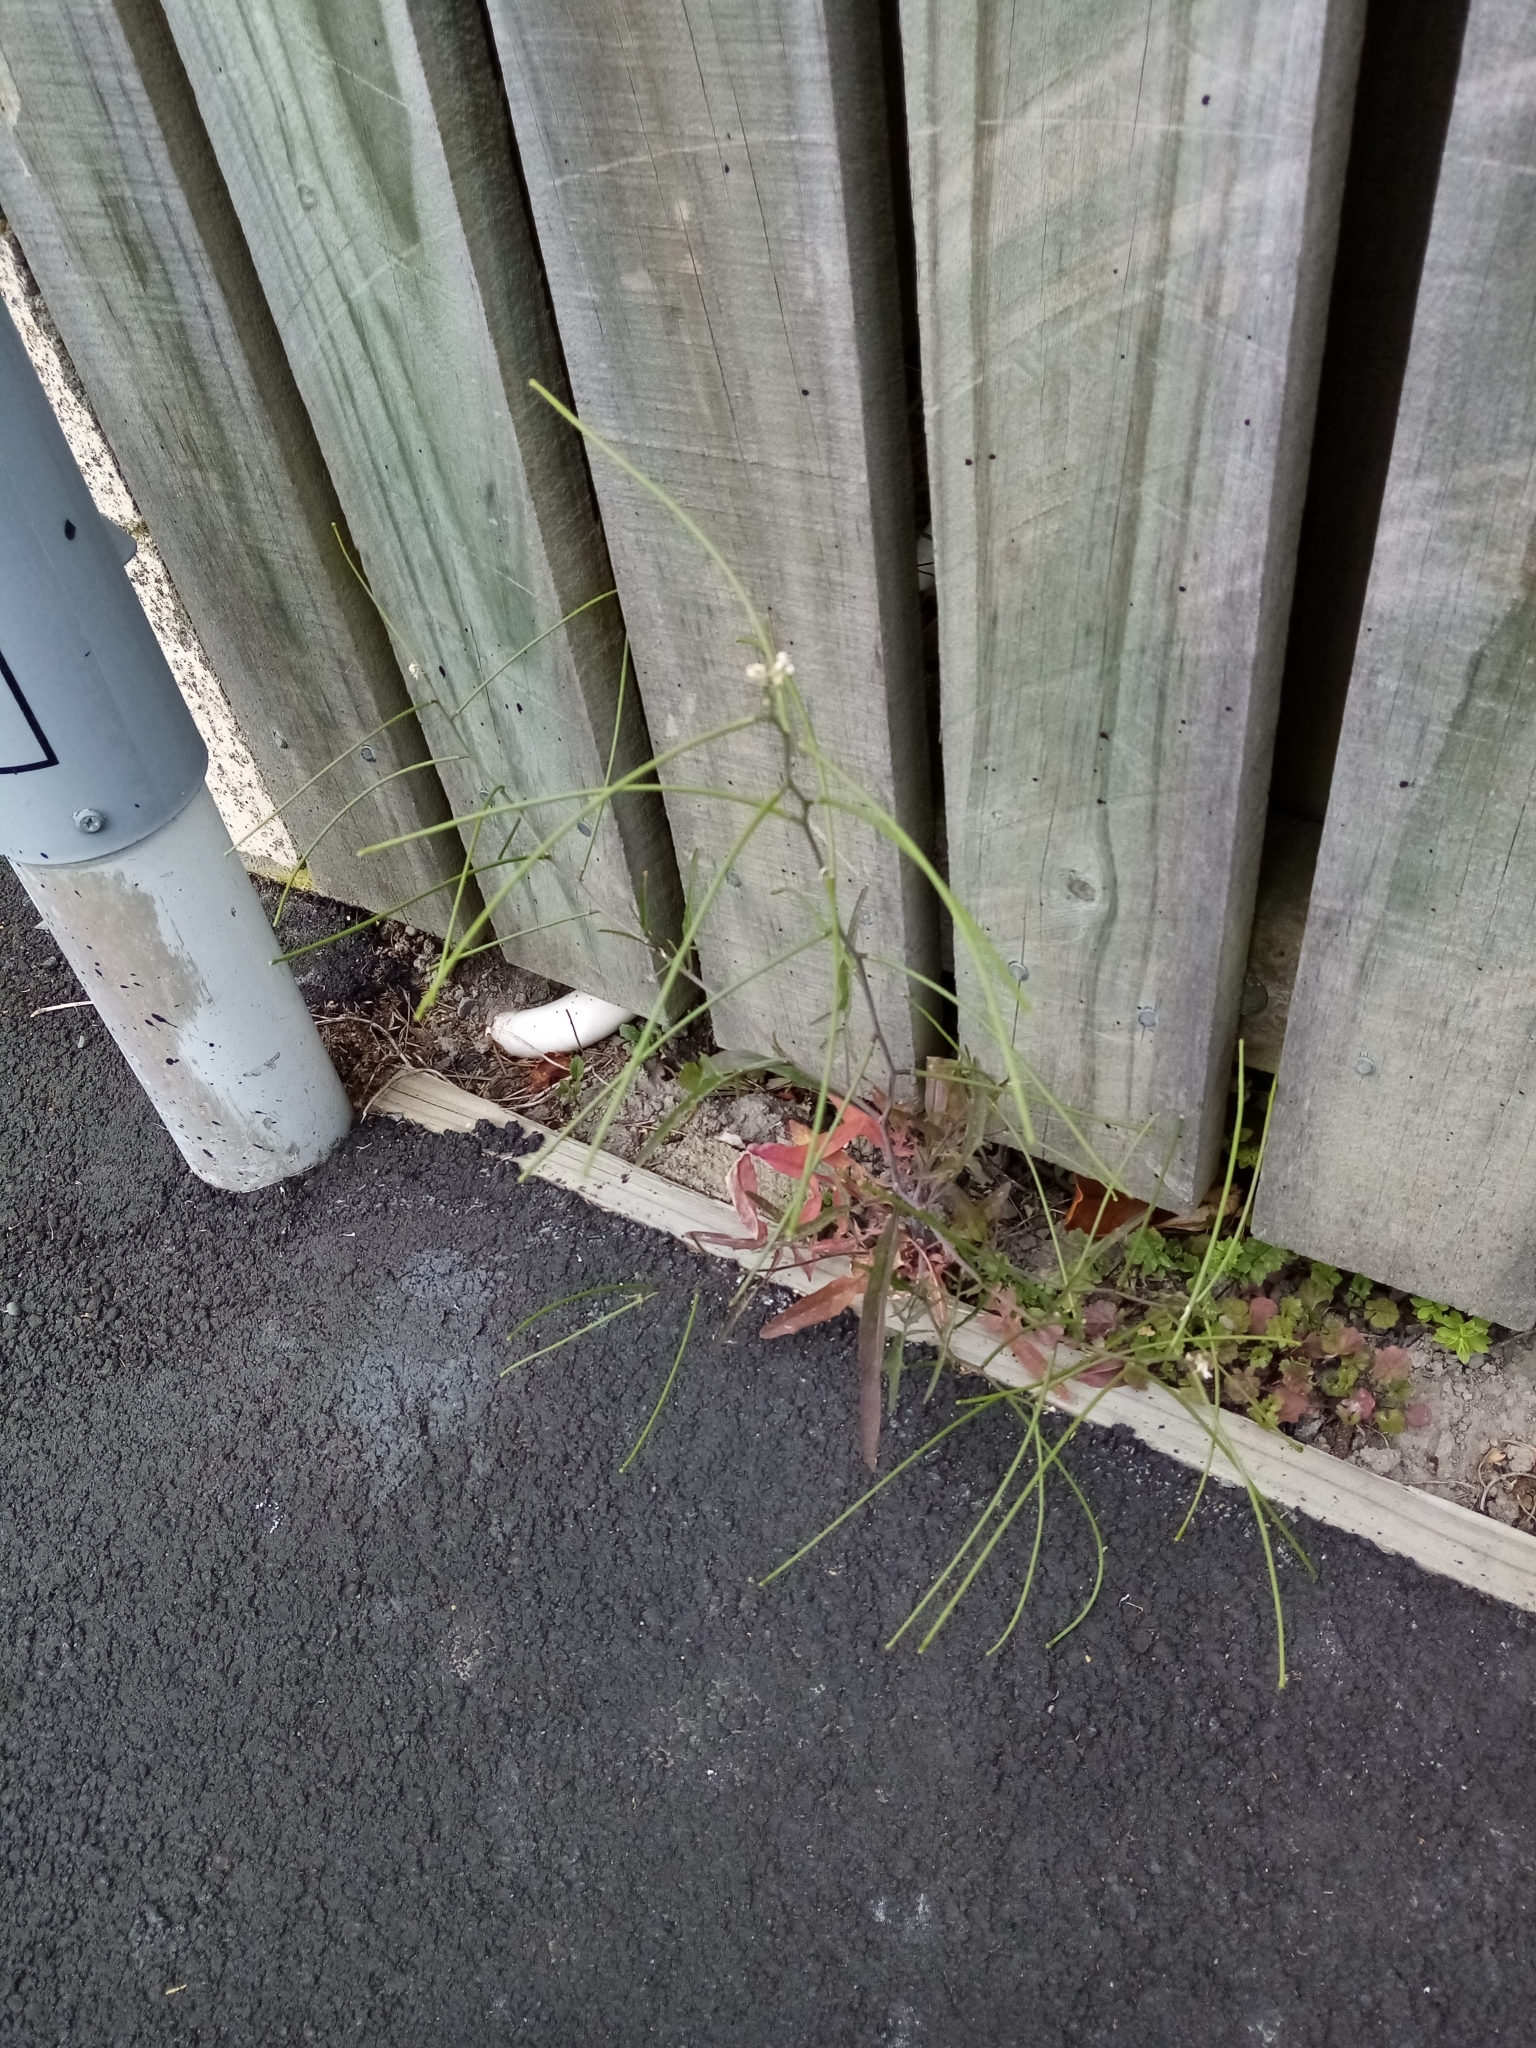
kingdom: Plantae
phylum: Tracheophyta
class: Magnoliopsida
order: Brassicales
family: Brassicaceae
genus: Sisymbrium
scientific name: Sisymbrium orientale
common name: Eastern rocket
